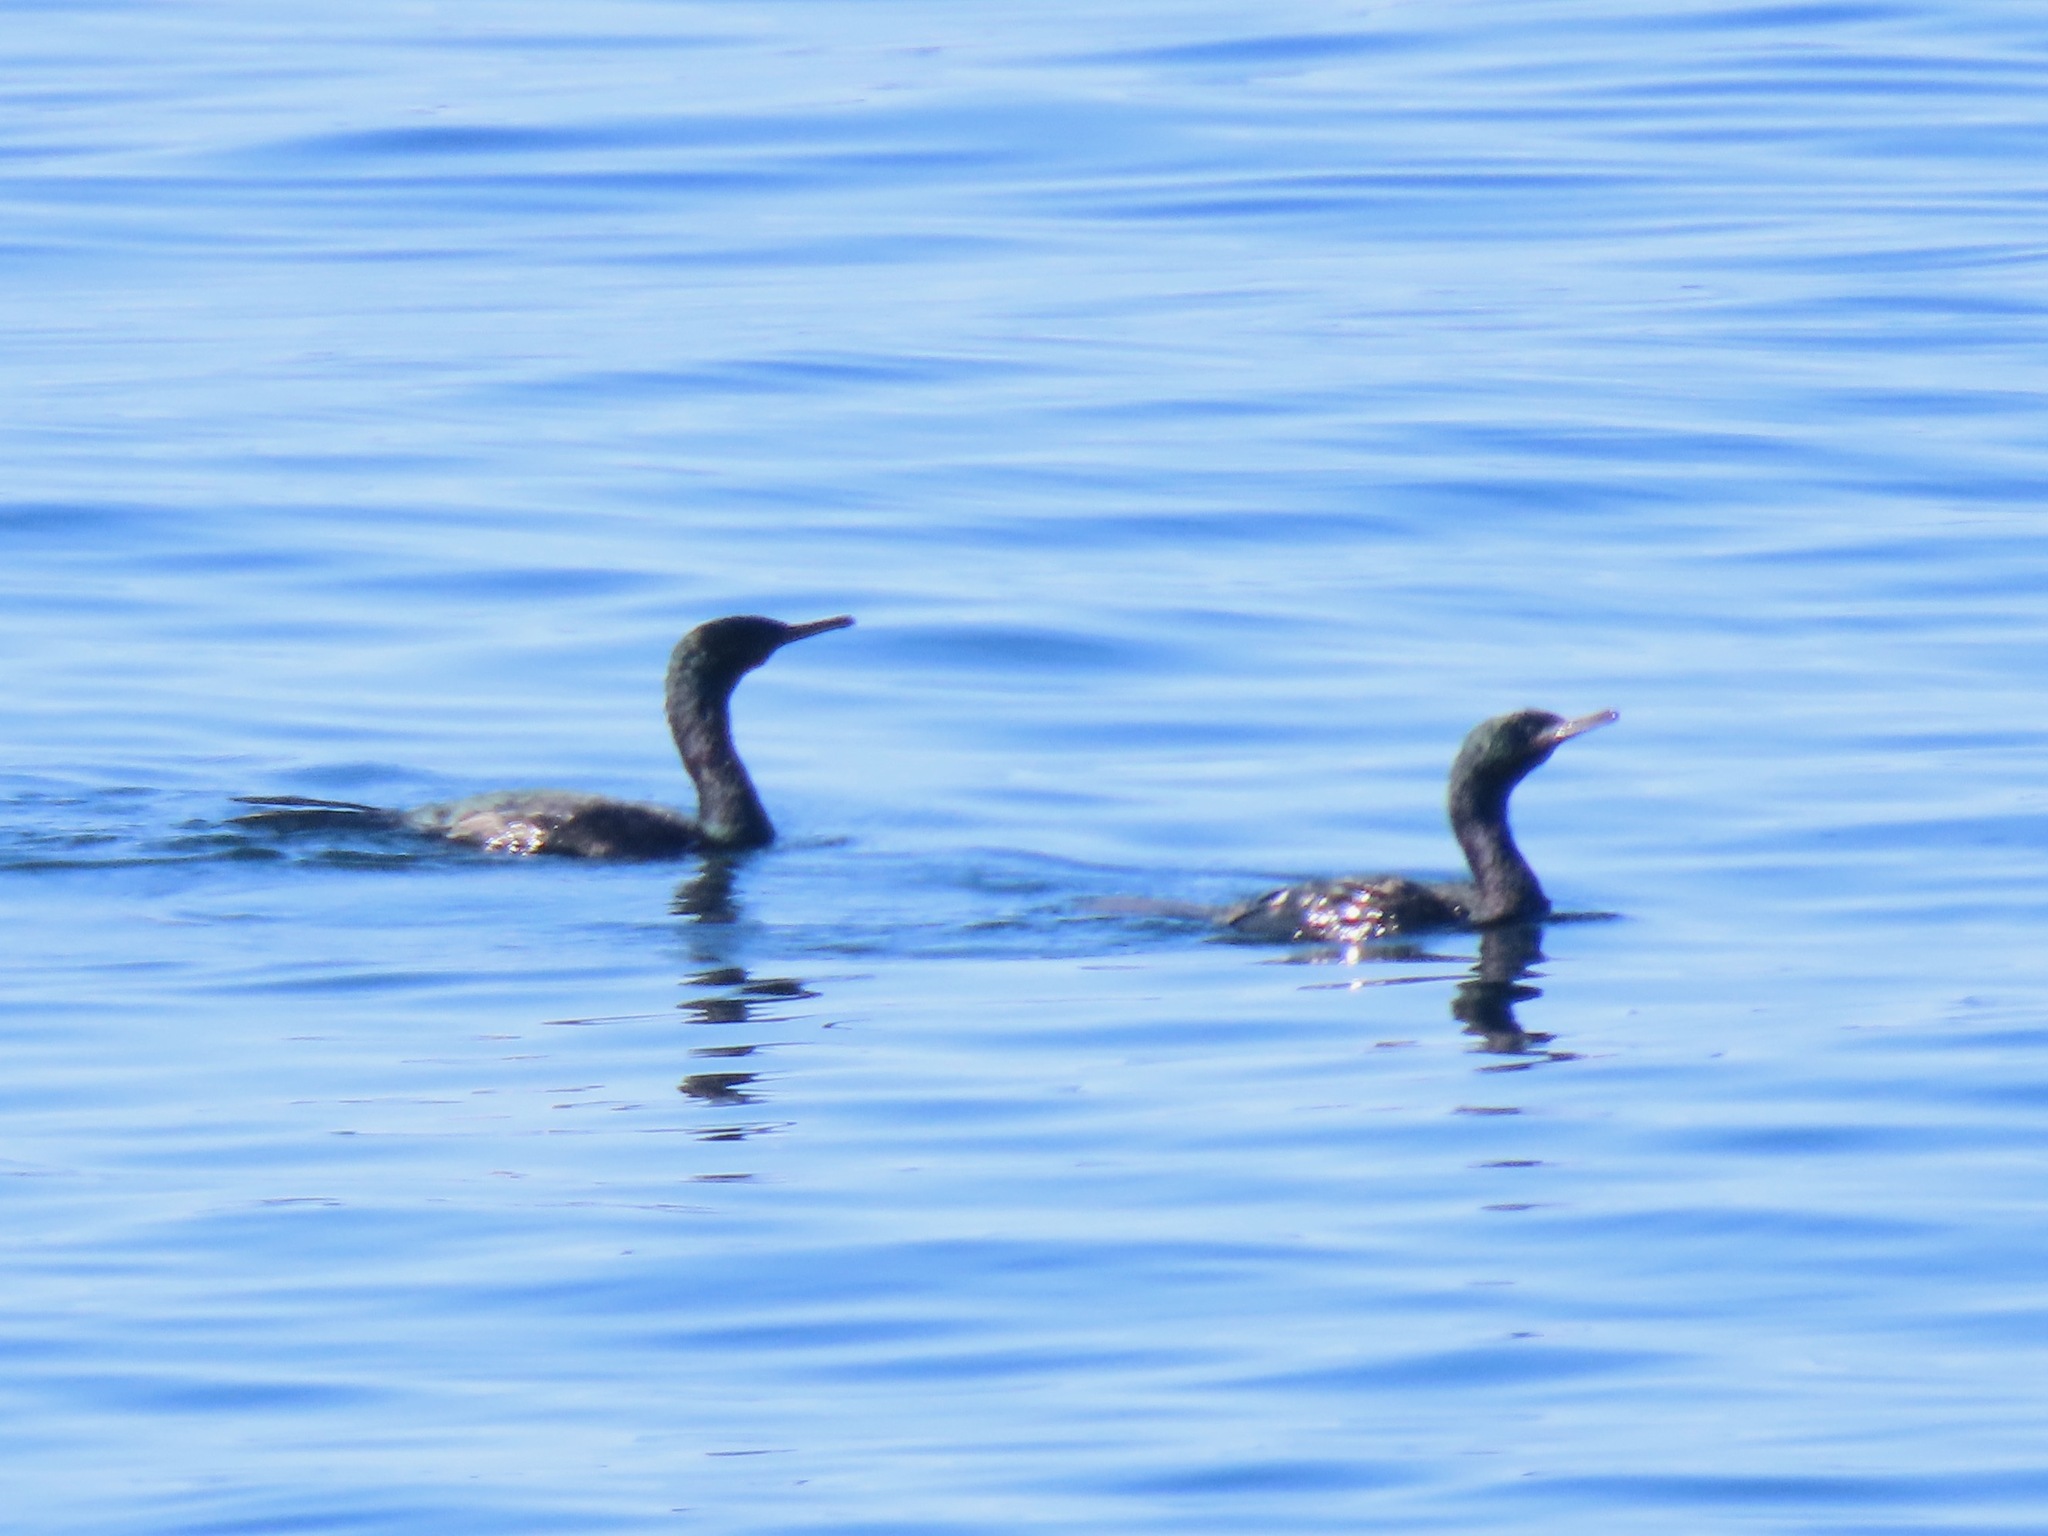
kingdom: Animalia
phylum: Chordata
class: Aves
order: Suliformes
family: Phalacrocoracidae
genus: Phalacrocorax
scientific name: Phalacrocorax pelagicus
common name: Pelagic cormorant
